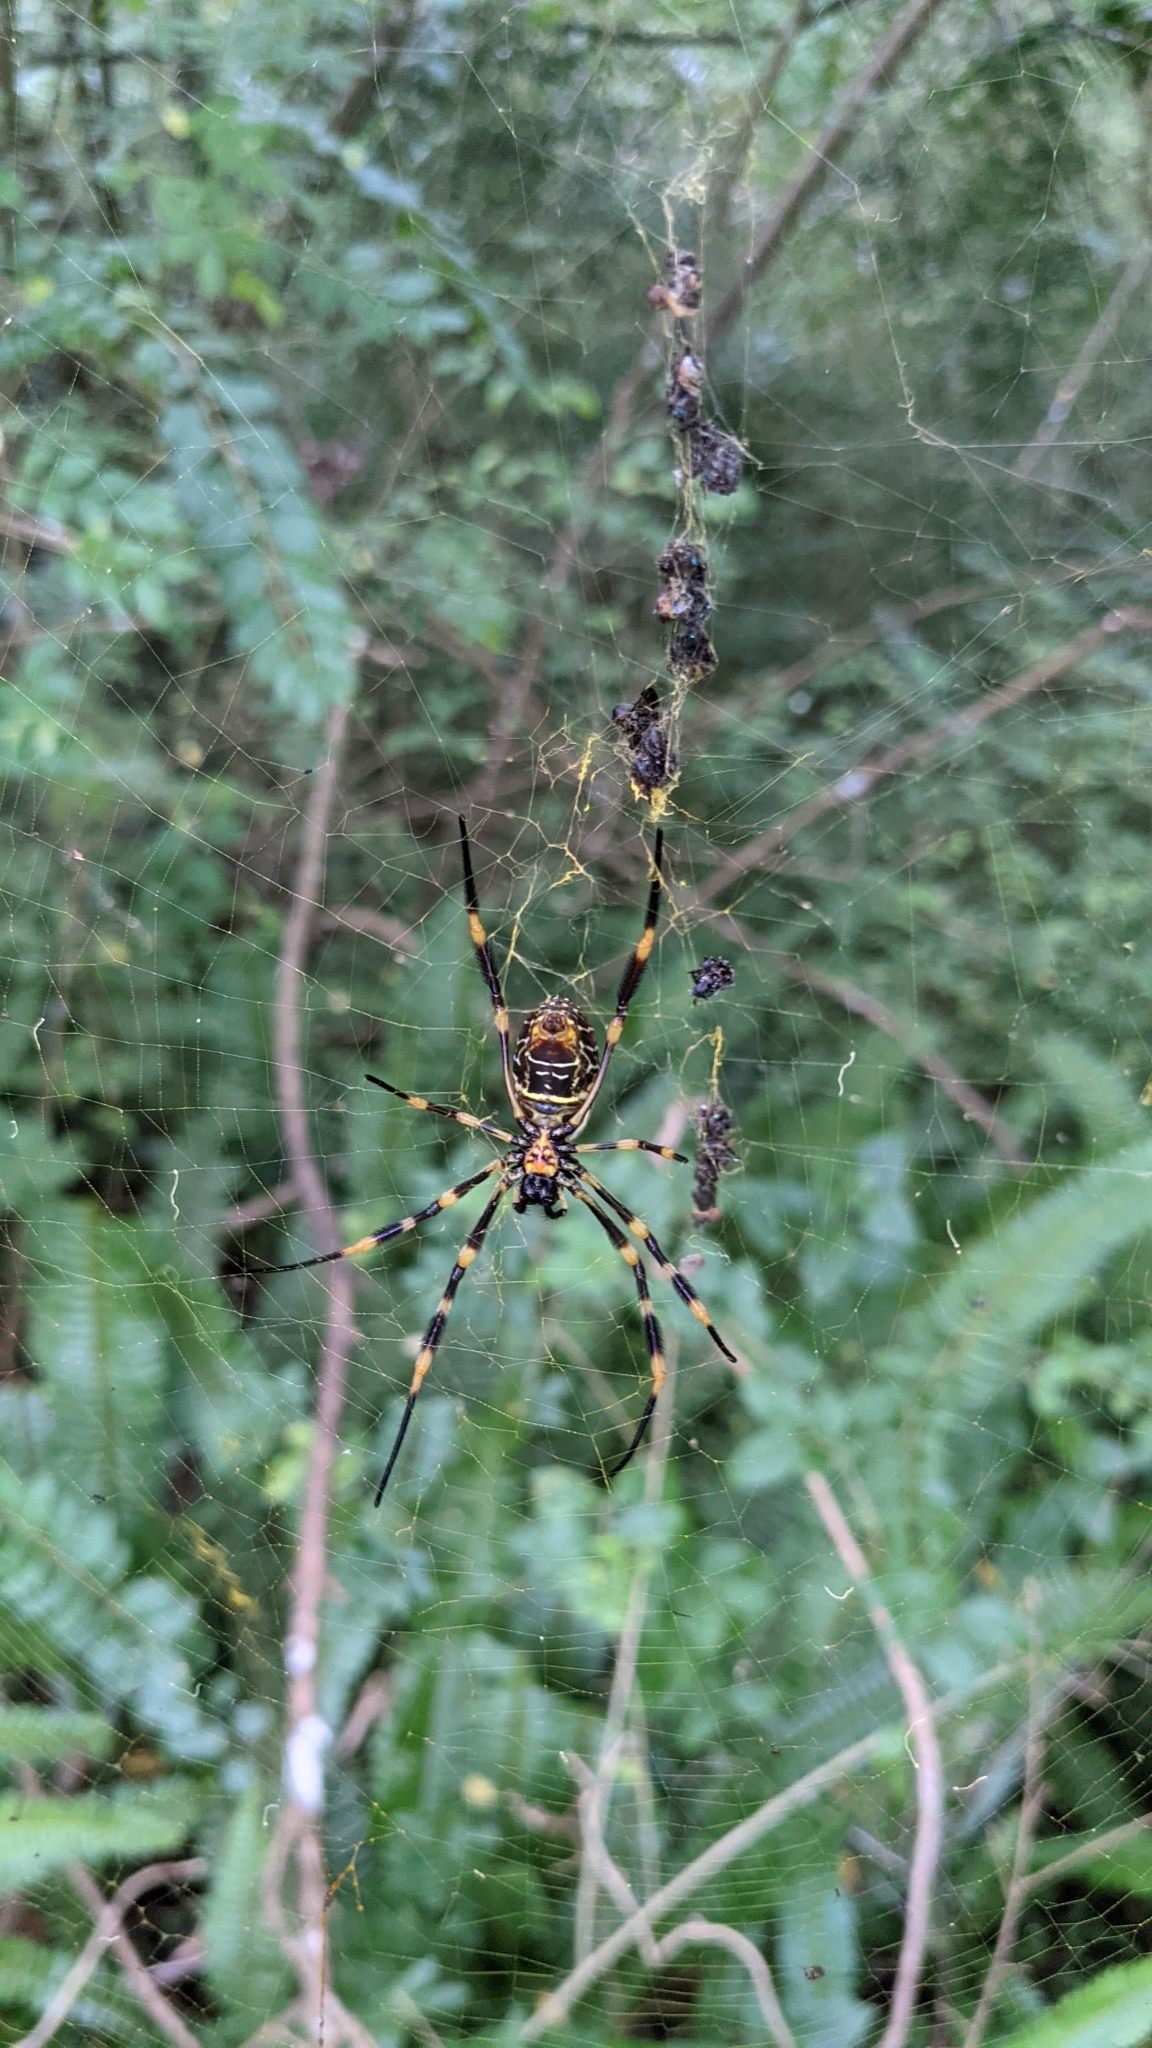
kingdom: Animalia
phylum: Arthropoda
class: Arachnida
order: Araneae
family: Araneidae
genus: Trichonephila
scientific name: Trichonephila plumipes
